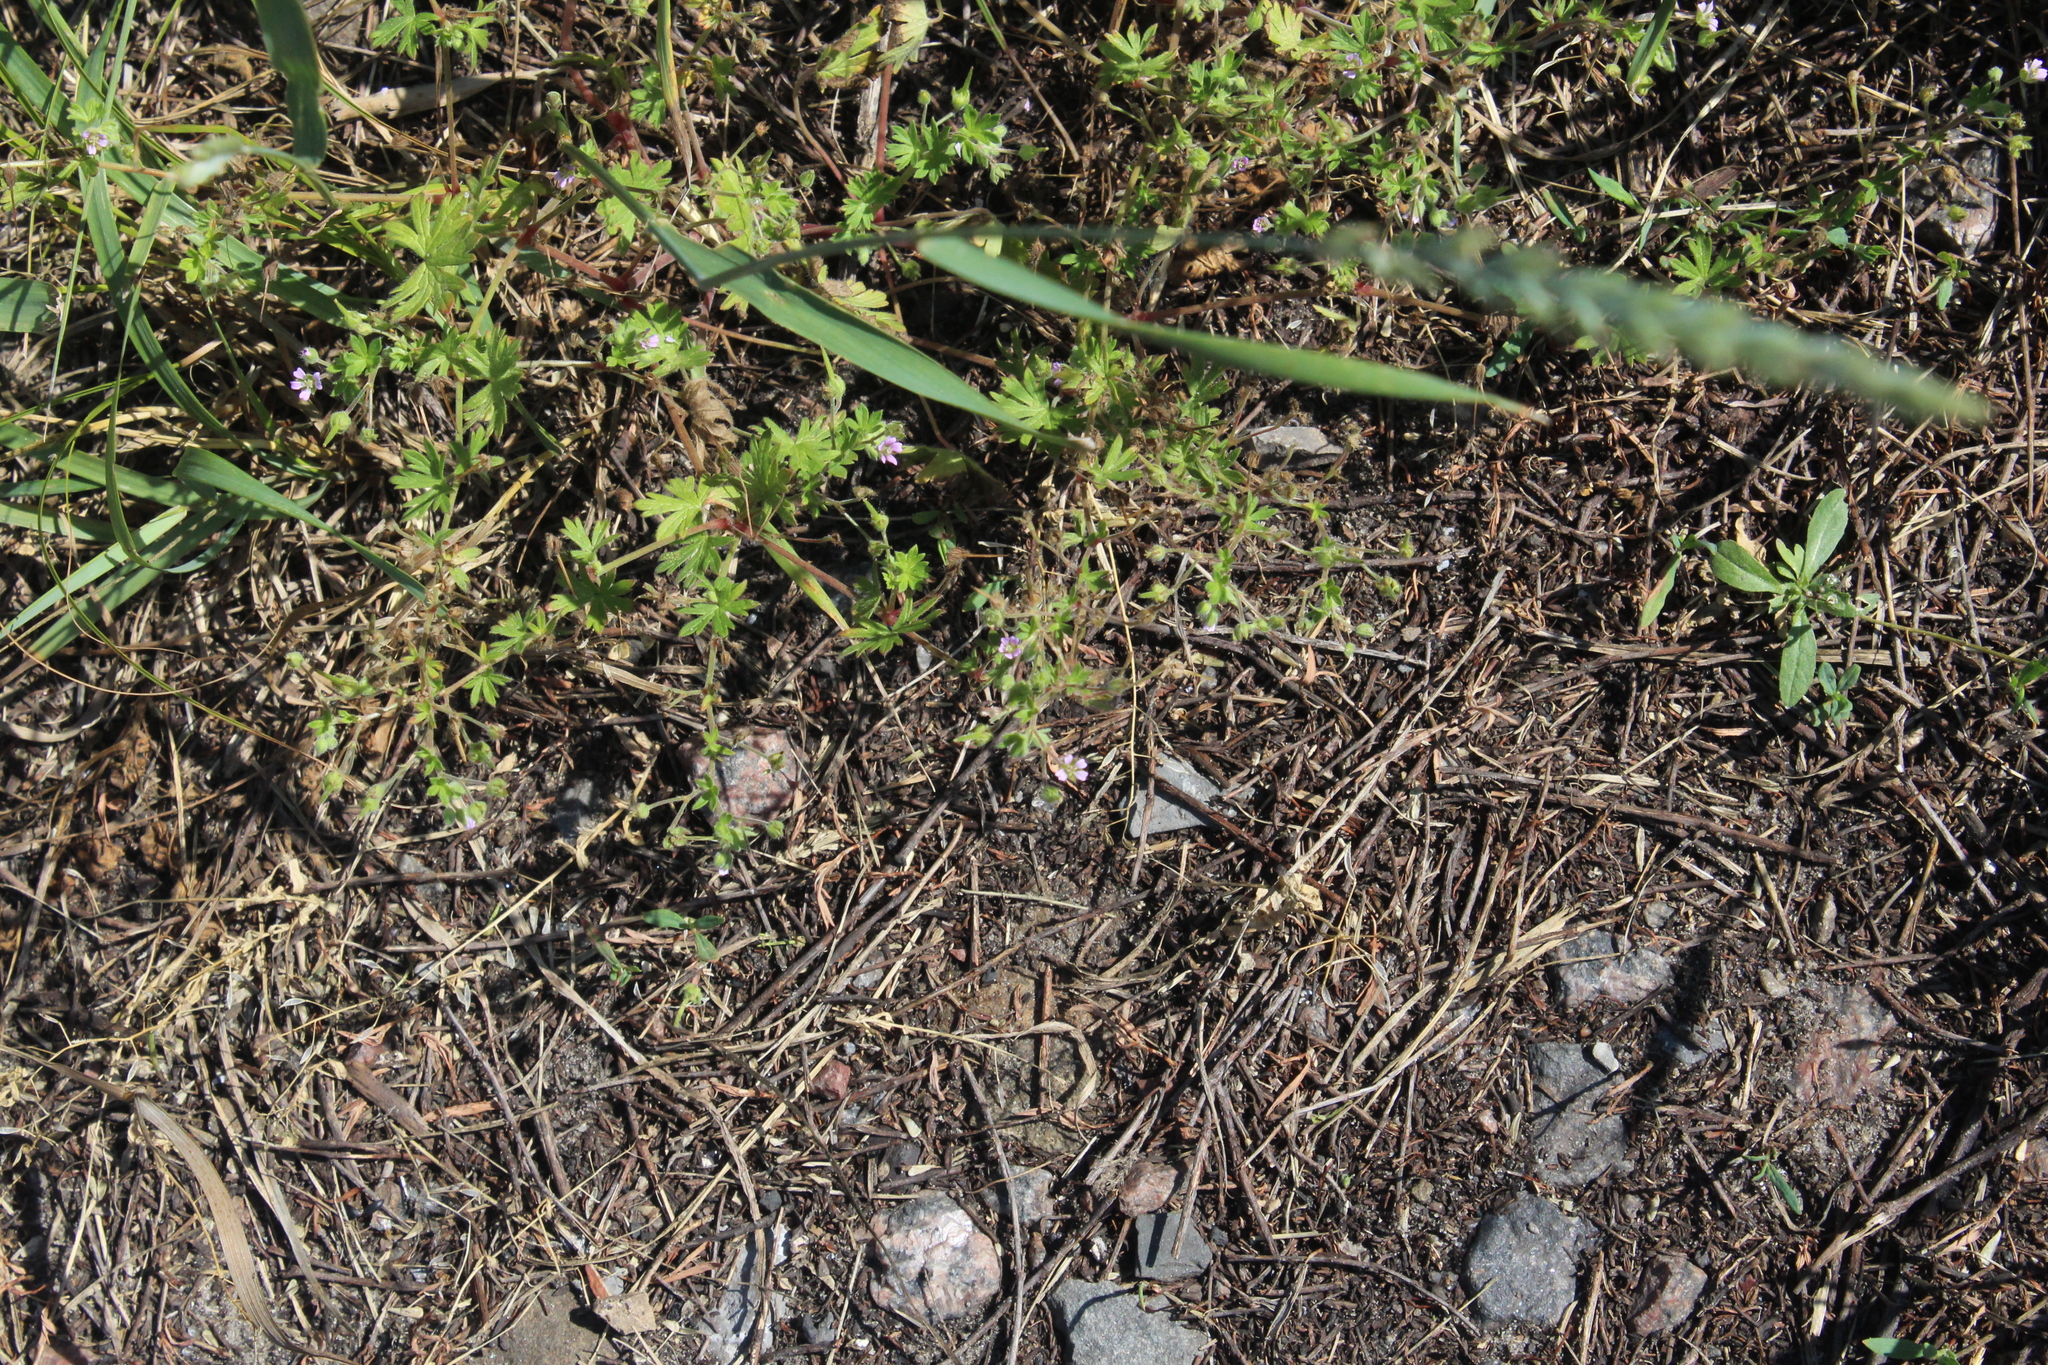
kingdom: Plantae
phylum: Tracheophyta
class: Magnoliopsida
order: Geraniales
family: Geraniaceae
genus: Geranium
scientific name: Geranium pusillum
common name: Small geranium
